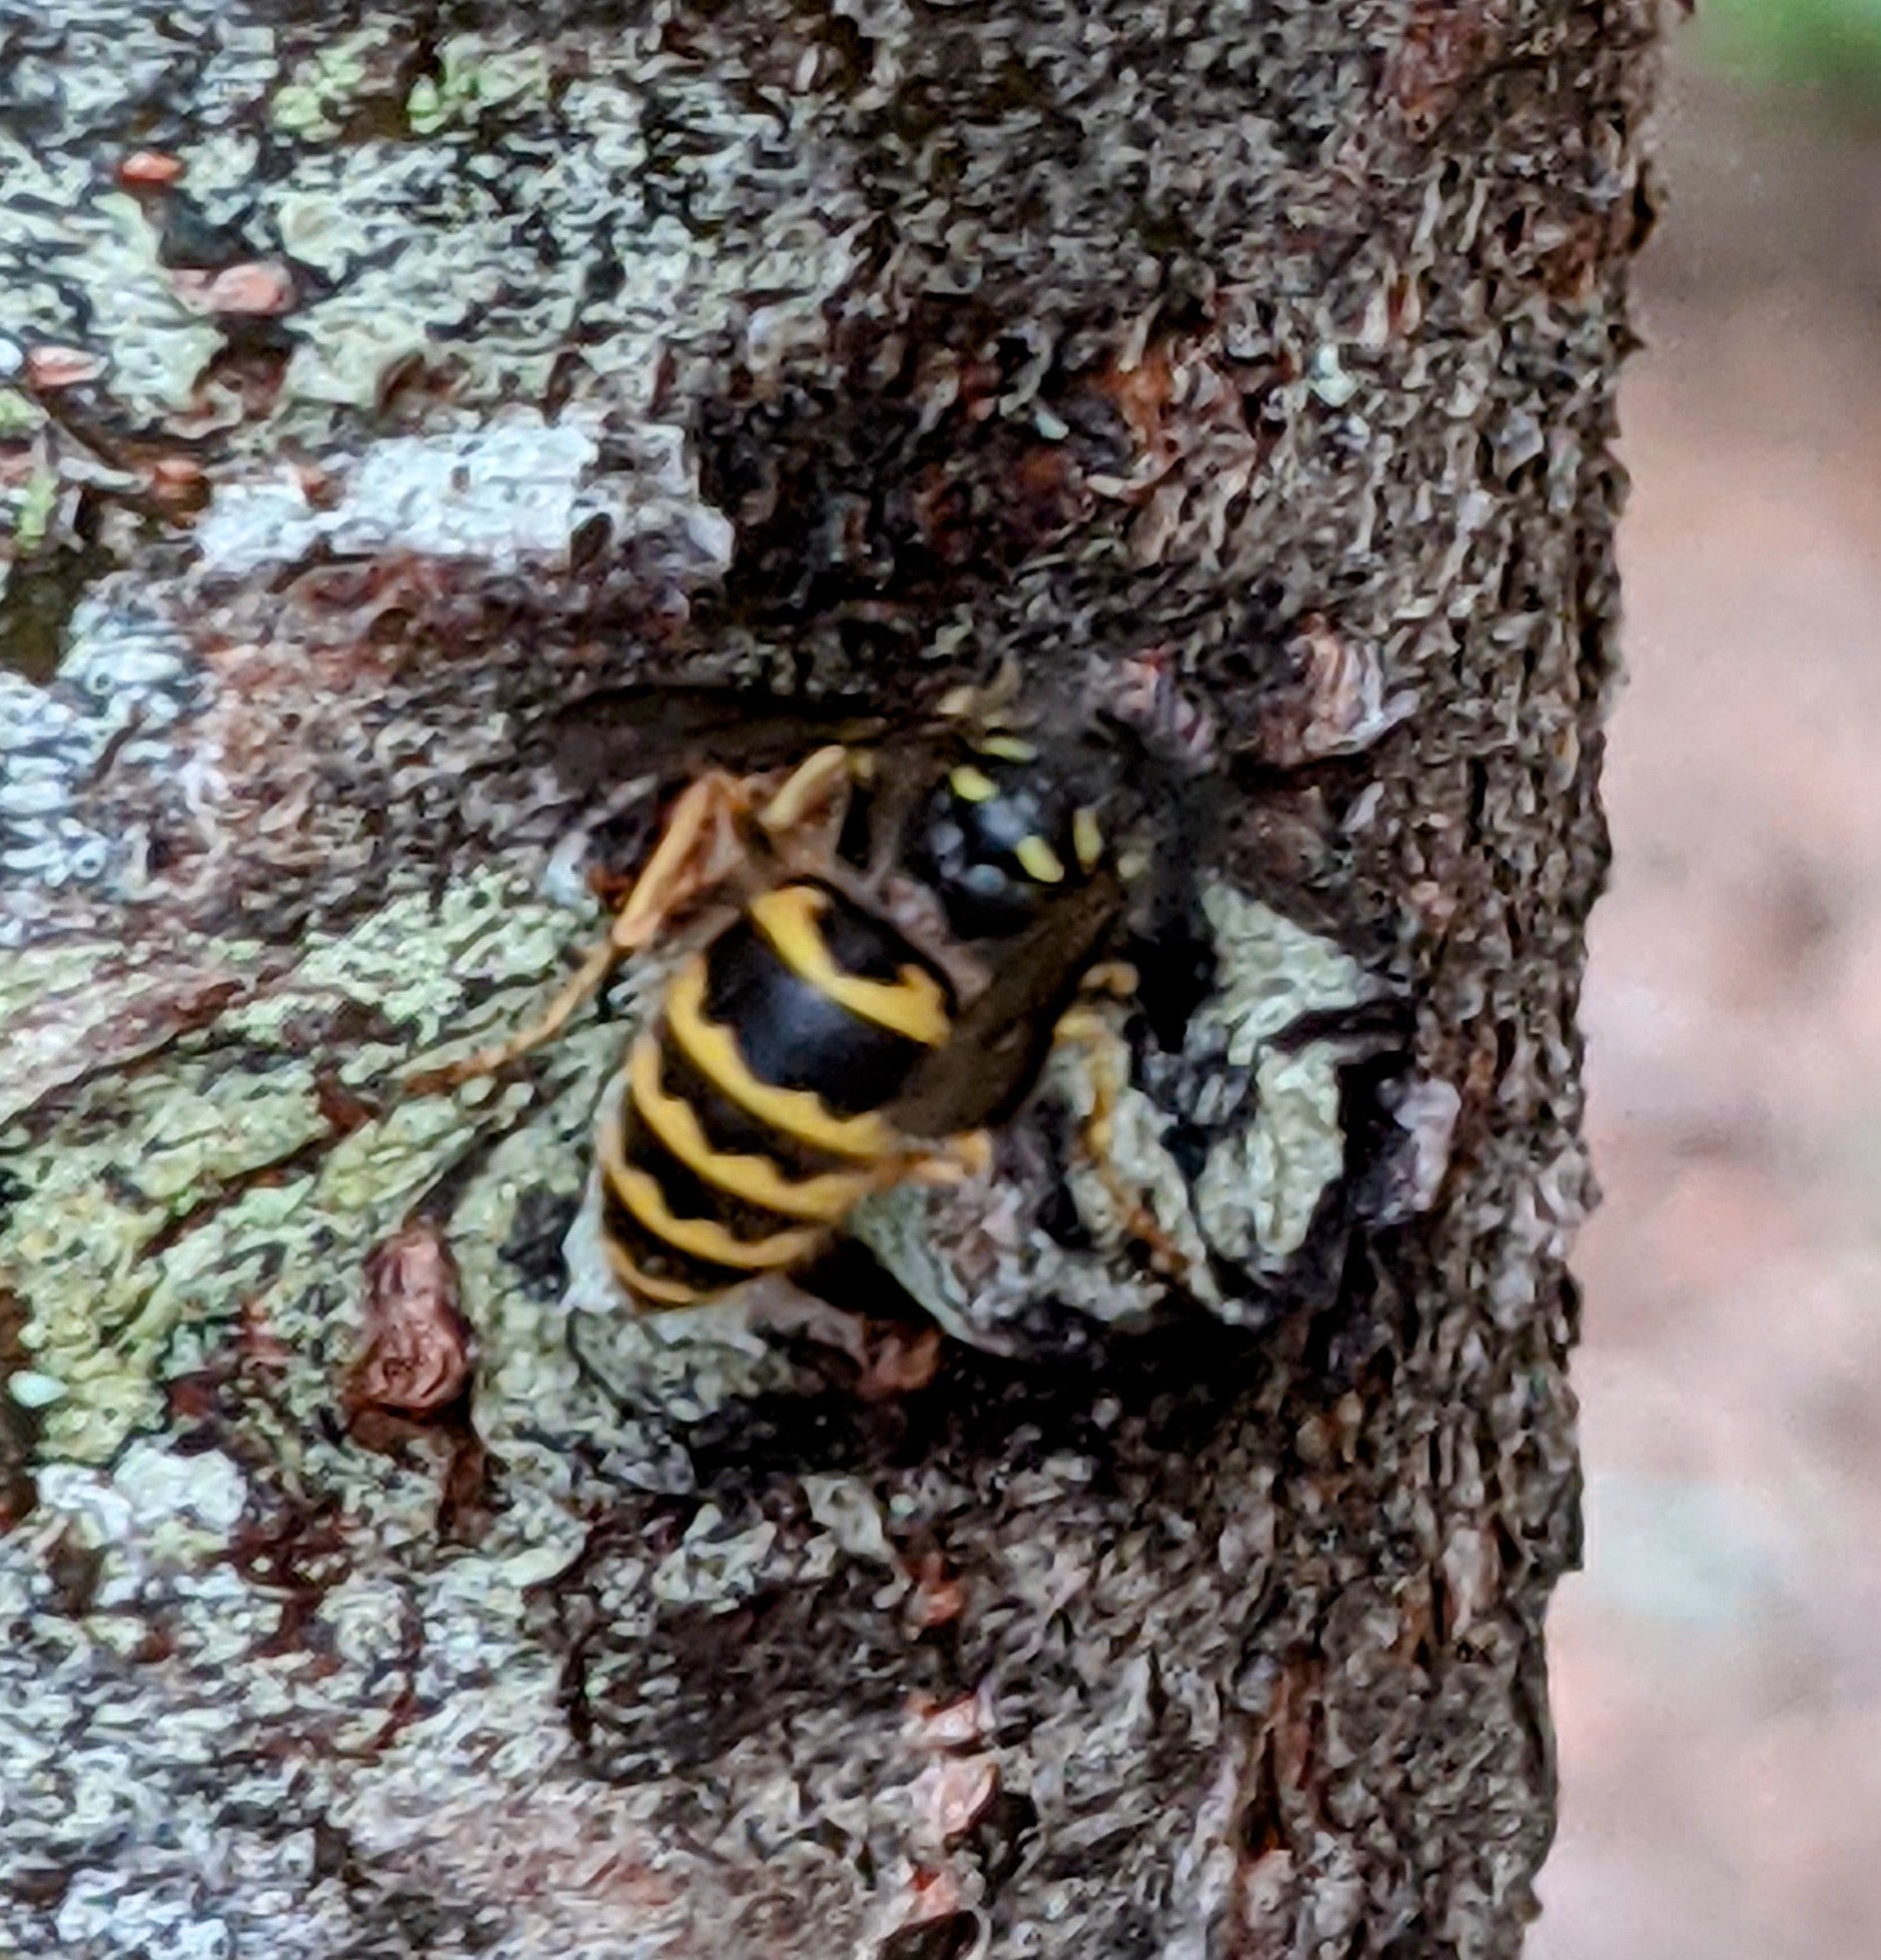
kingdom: Animalia
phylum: Arthropoda
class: Insecta
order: Hymenoptera
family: Vespidae
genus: Vespula
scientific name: Vespula alascensis
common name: Alaska yellowjacket
